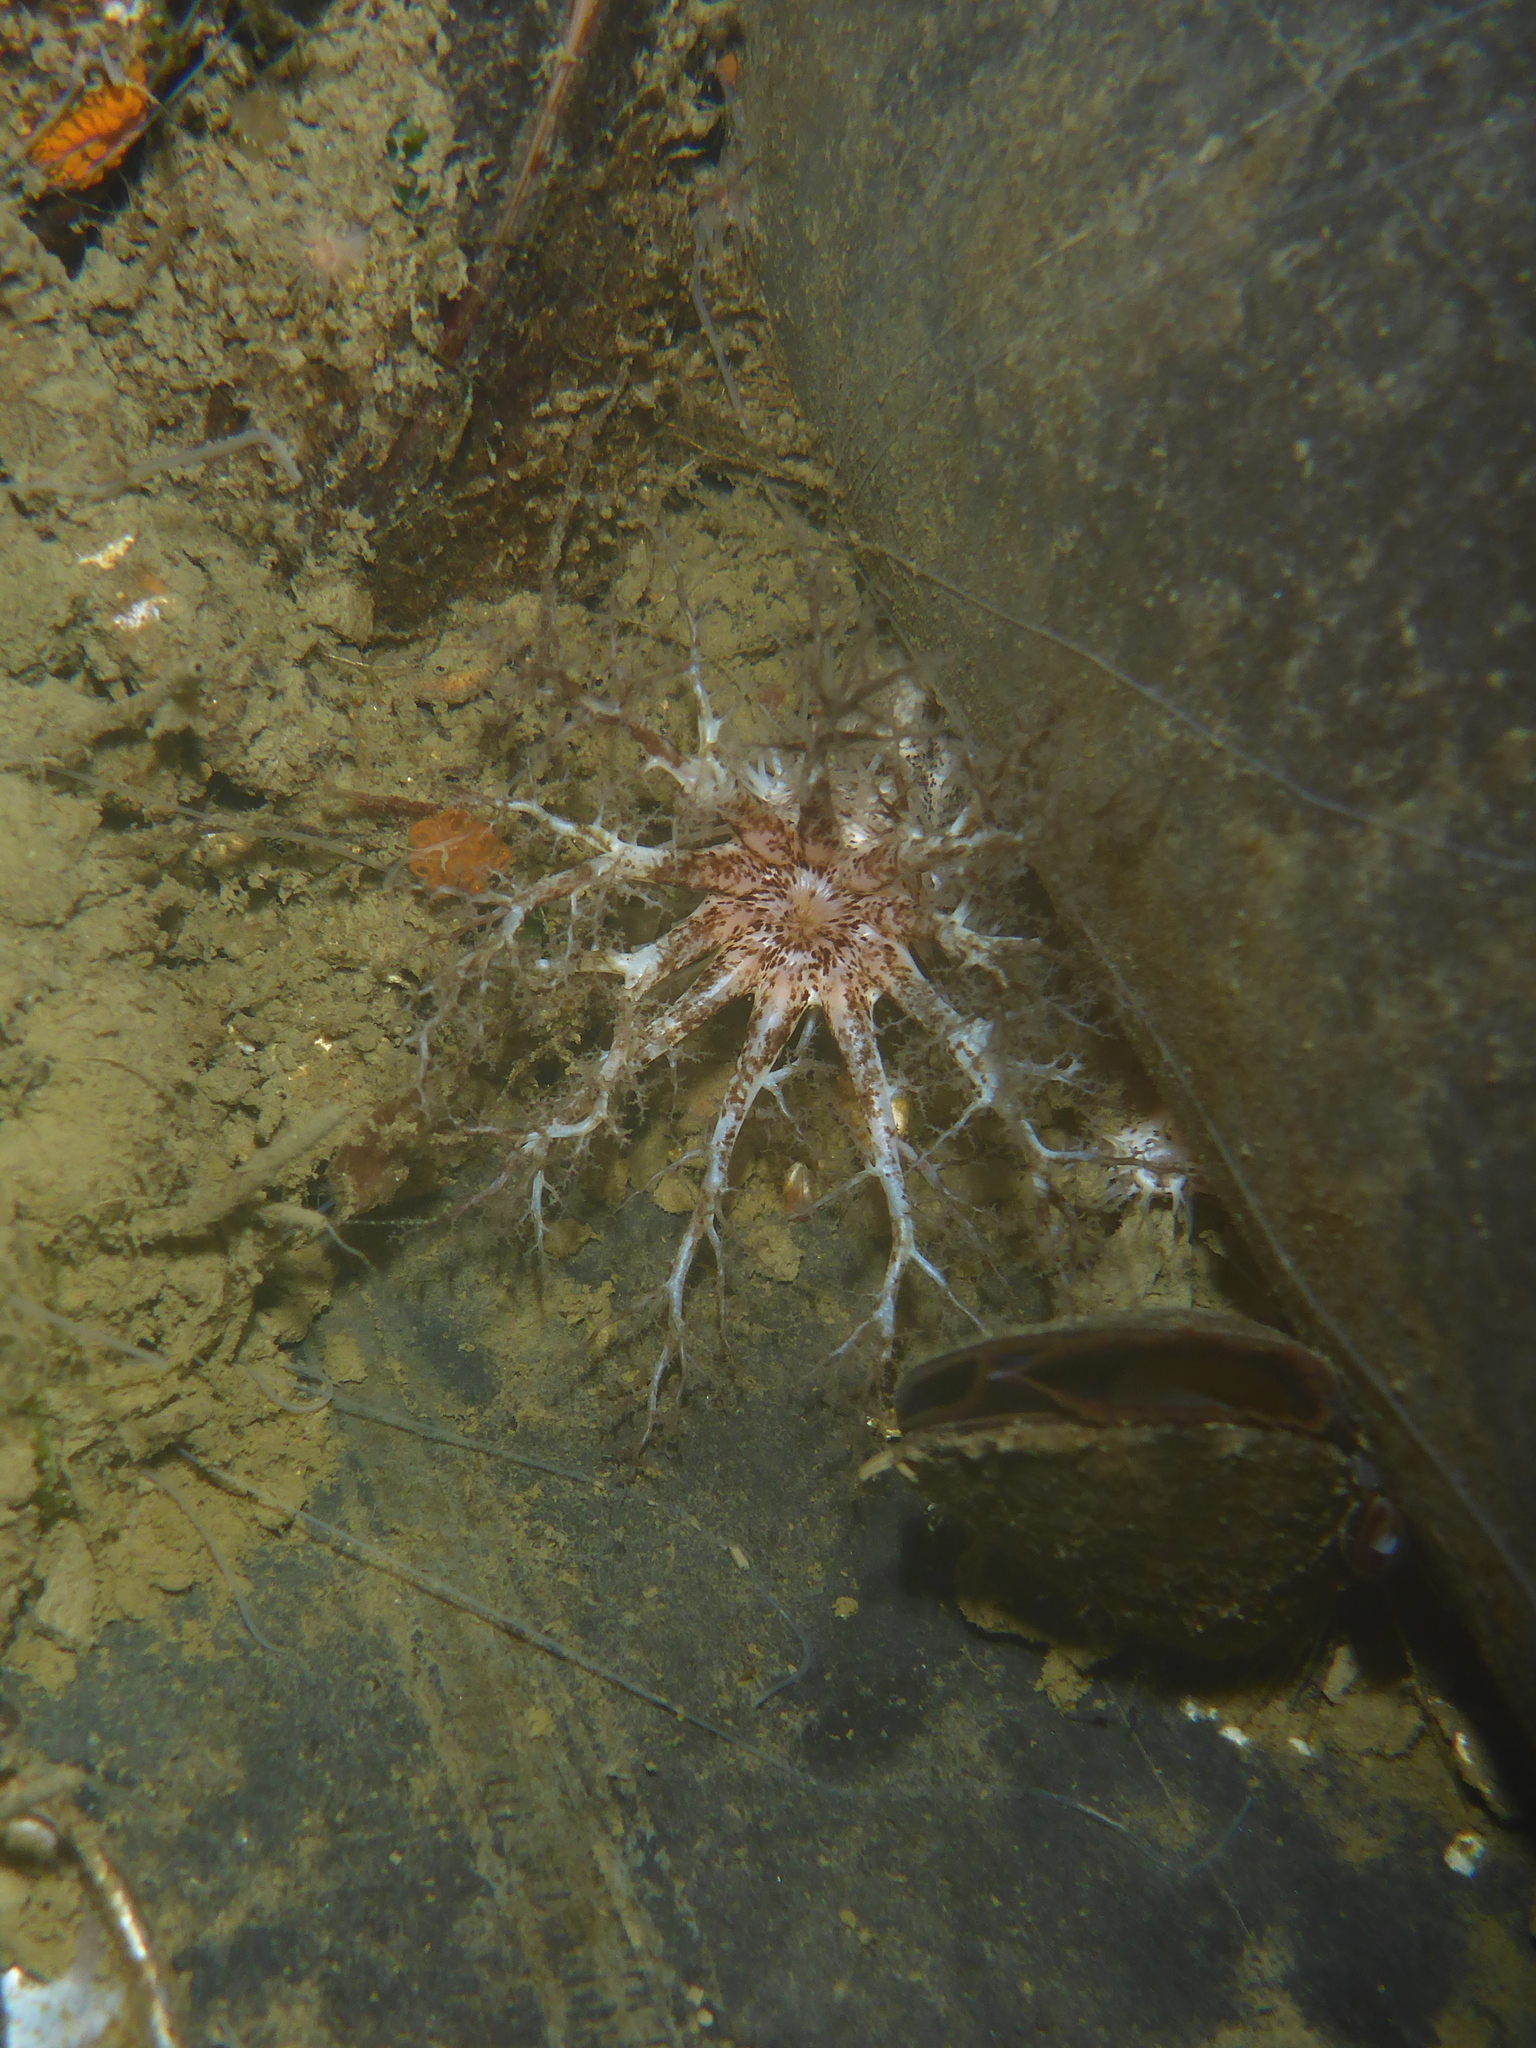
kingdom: Animalia
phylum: Echinodermata
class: Holothuroidea
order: Dendrochirotida
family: Cucumariidae
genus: Cucumaria
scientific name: Cucumaria piperata
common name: Peppered sea cucumber
